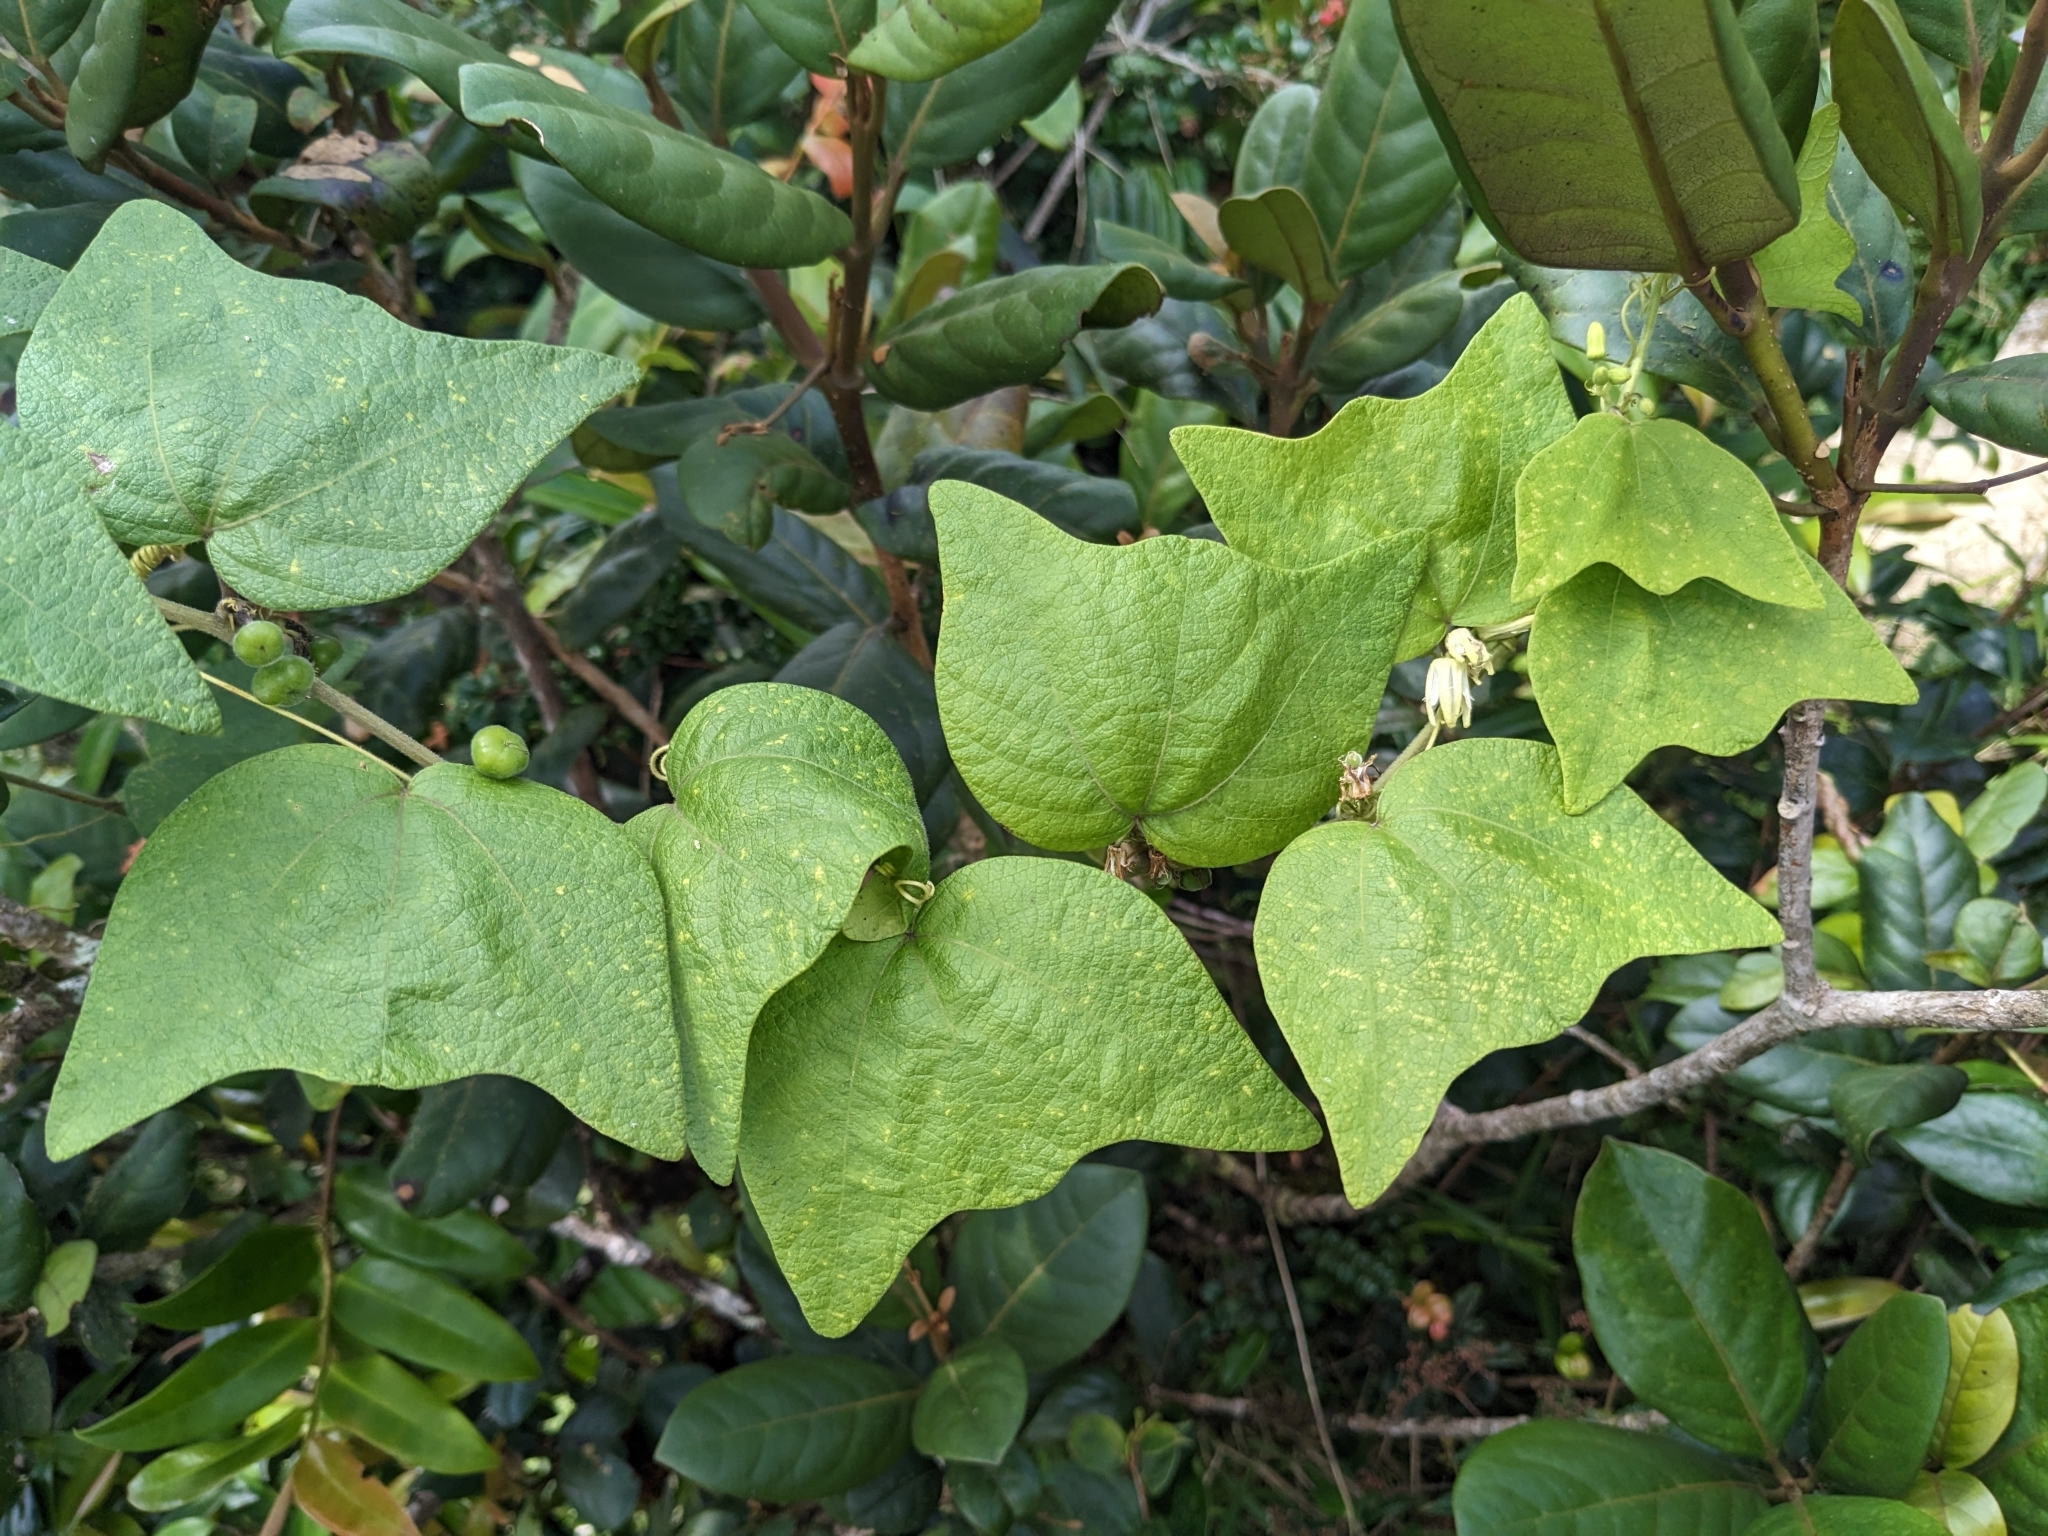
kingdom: Plantae
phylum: Tracheophyta
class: Magnoliopsida
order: Malpighiales
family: Passifloraceae
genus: Passiflora
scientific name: Passiflora sexflora
